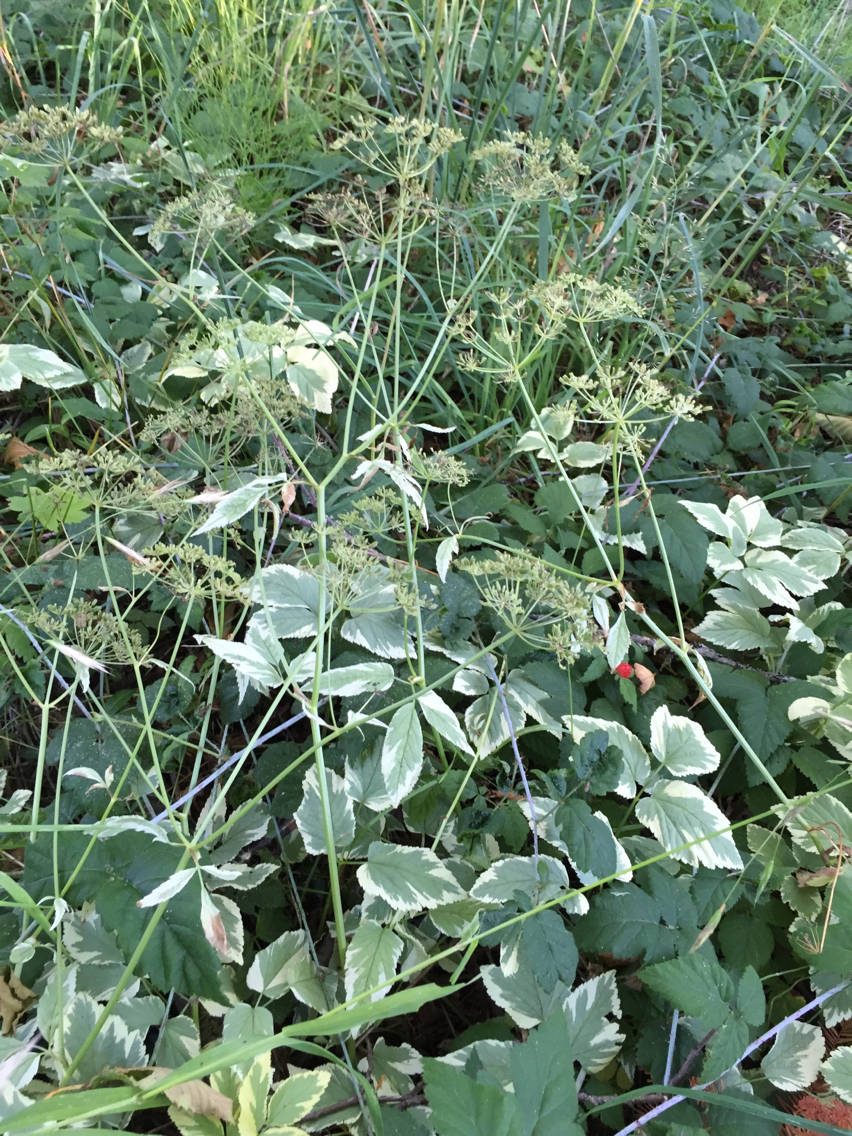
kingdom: Plantae
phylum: Tracheophyta
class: Magnoliopsida
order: Apiales
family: Apiaceae
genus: Aegopodium
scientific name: Aegopodium podagraria
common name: Ground-elder
